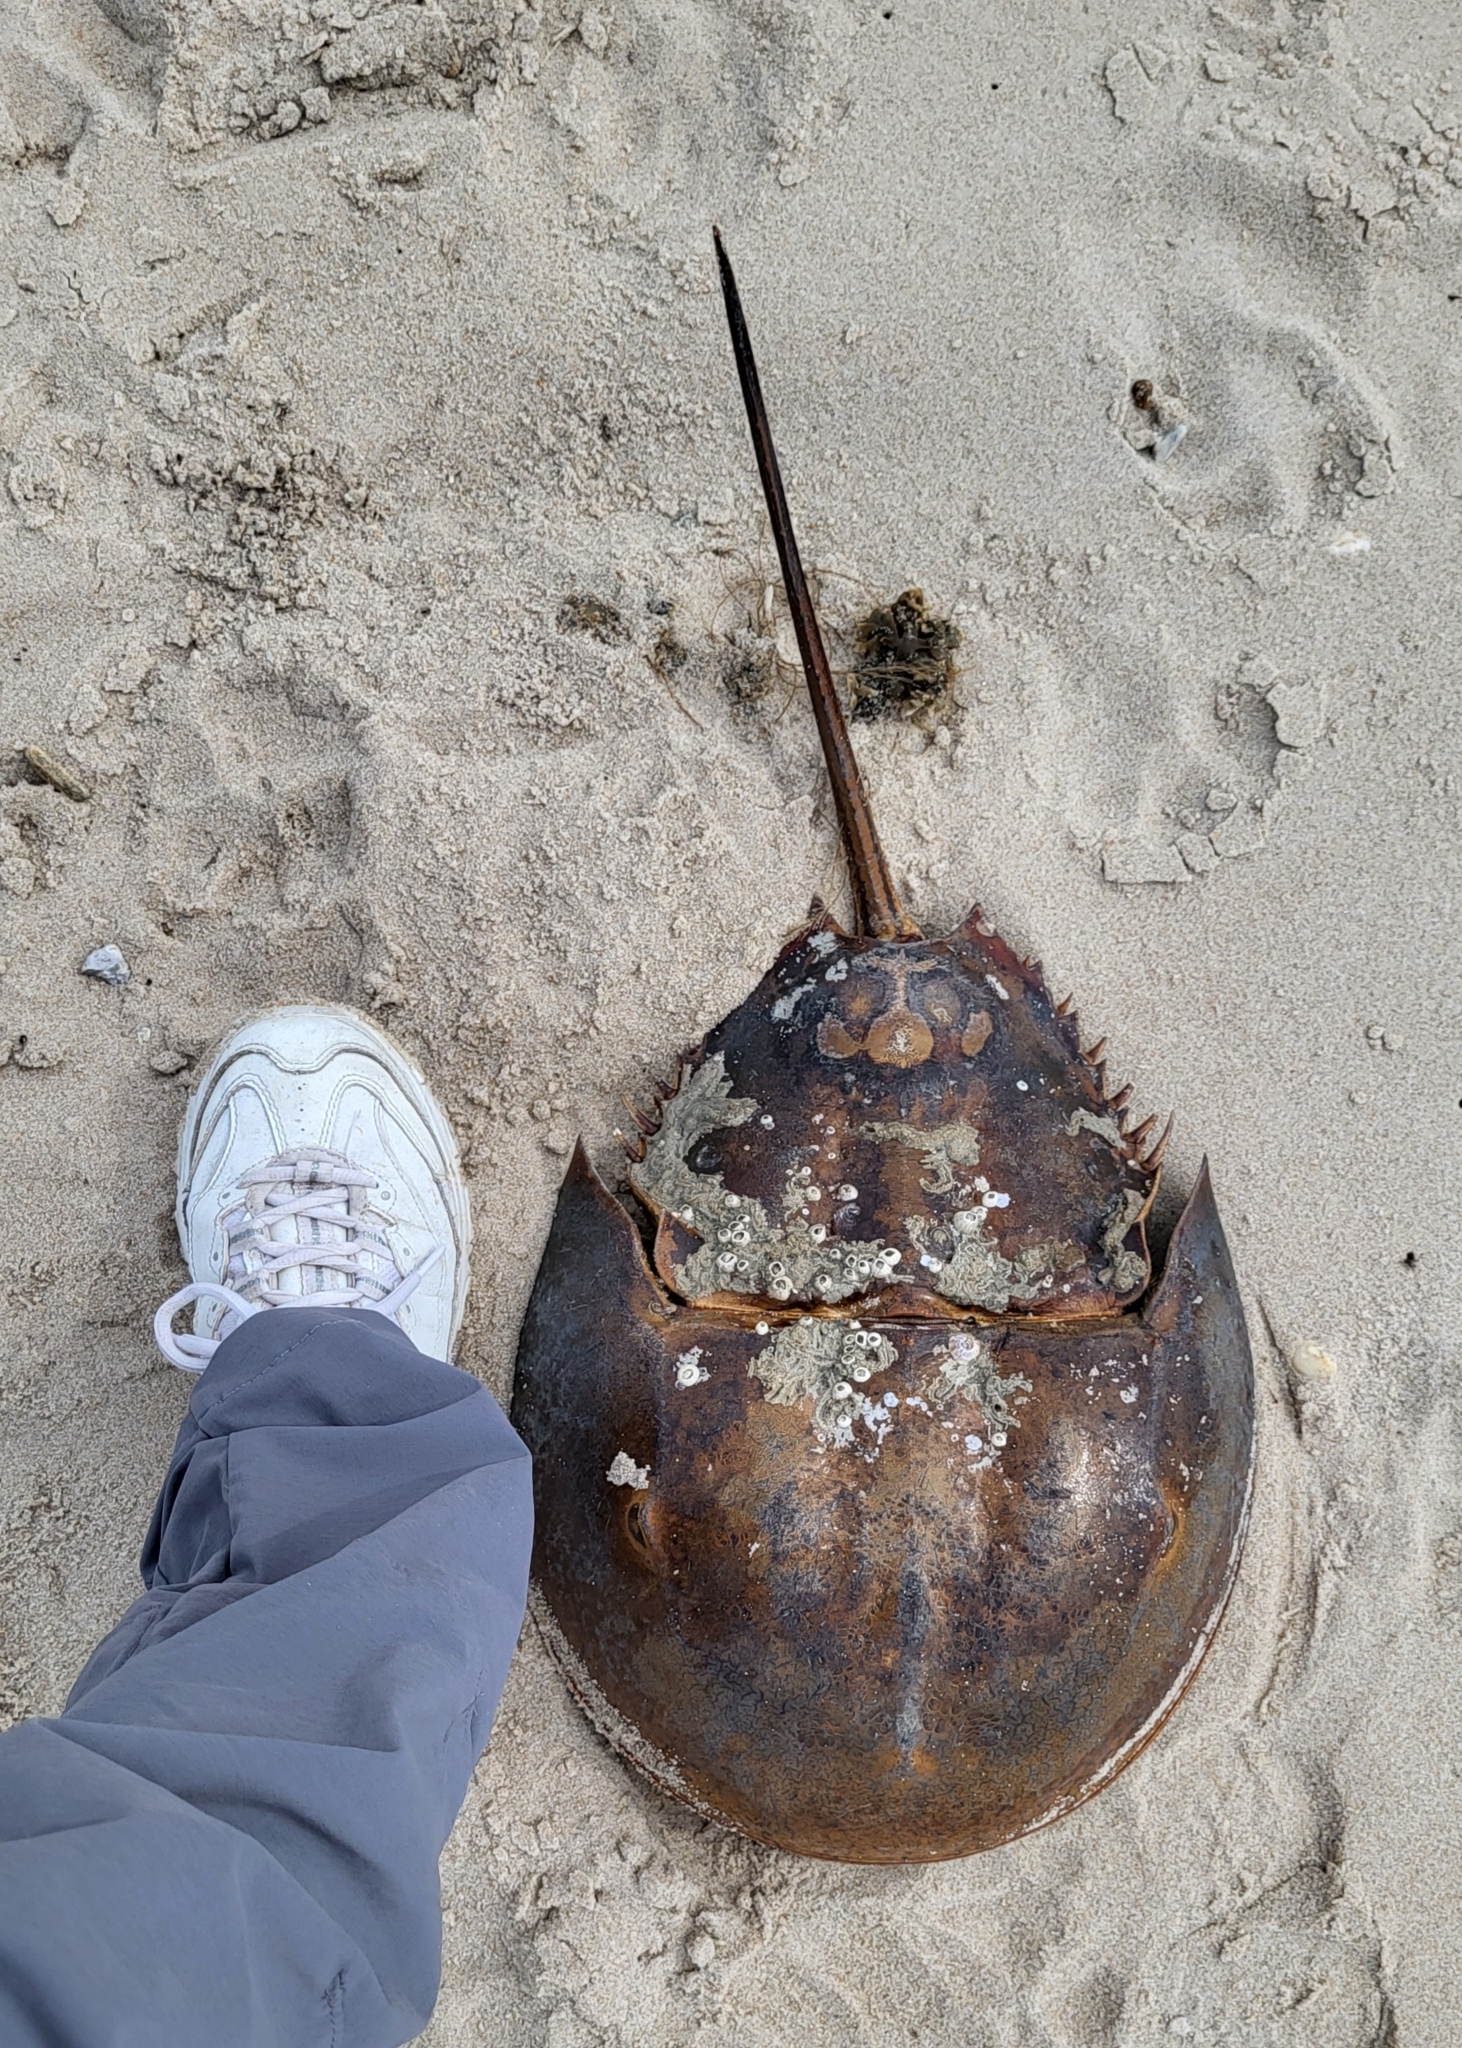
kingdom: Animalia
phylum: Arthropoda
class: Merostomata
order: Xiphosurida
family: Limulidae
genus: Limulus
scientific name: Limulus polyphemus
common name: Horseshoe crab
